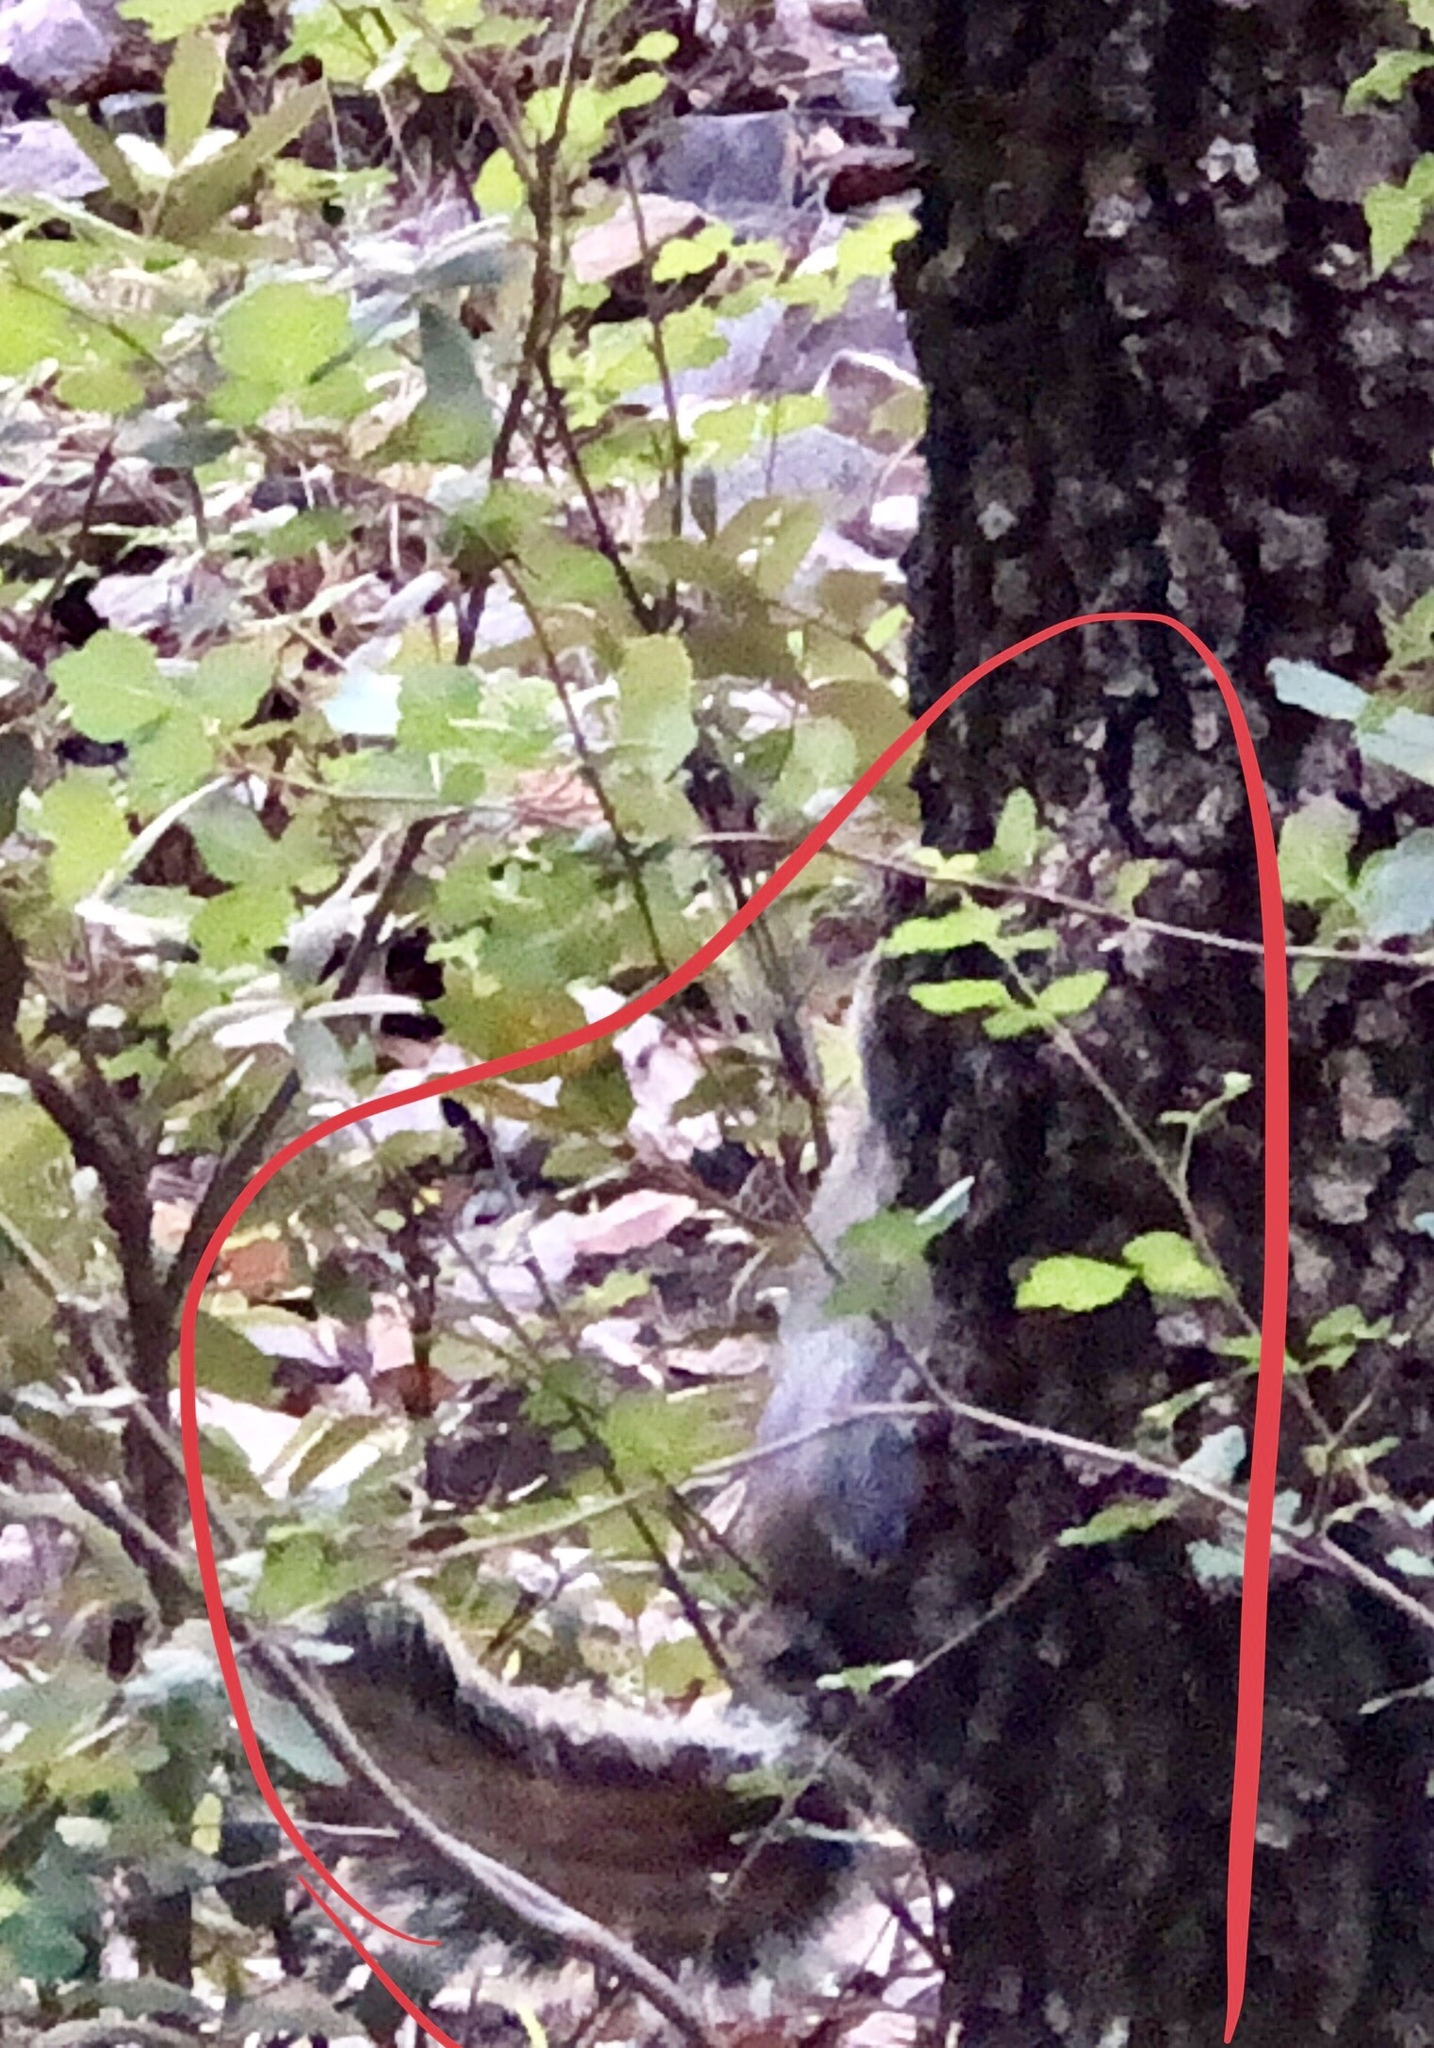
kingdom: Animalia
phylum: Chordata
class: Mammalia
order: Rodentia
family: Sciuridae
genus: Sciurus
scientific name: Sciurus arizonensis
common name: Arizona gray squirrel
